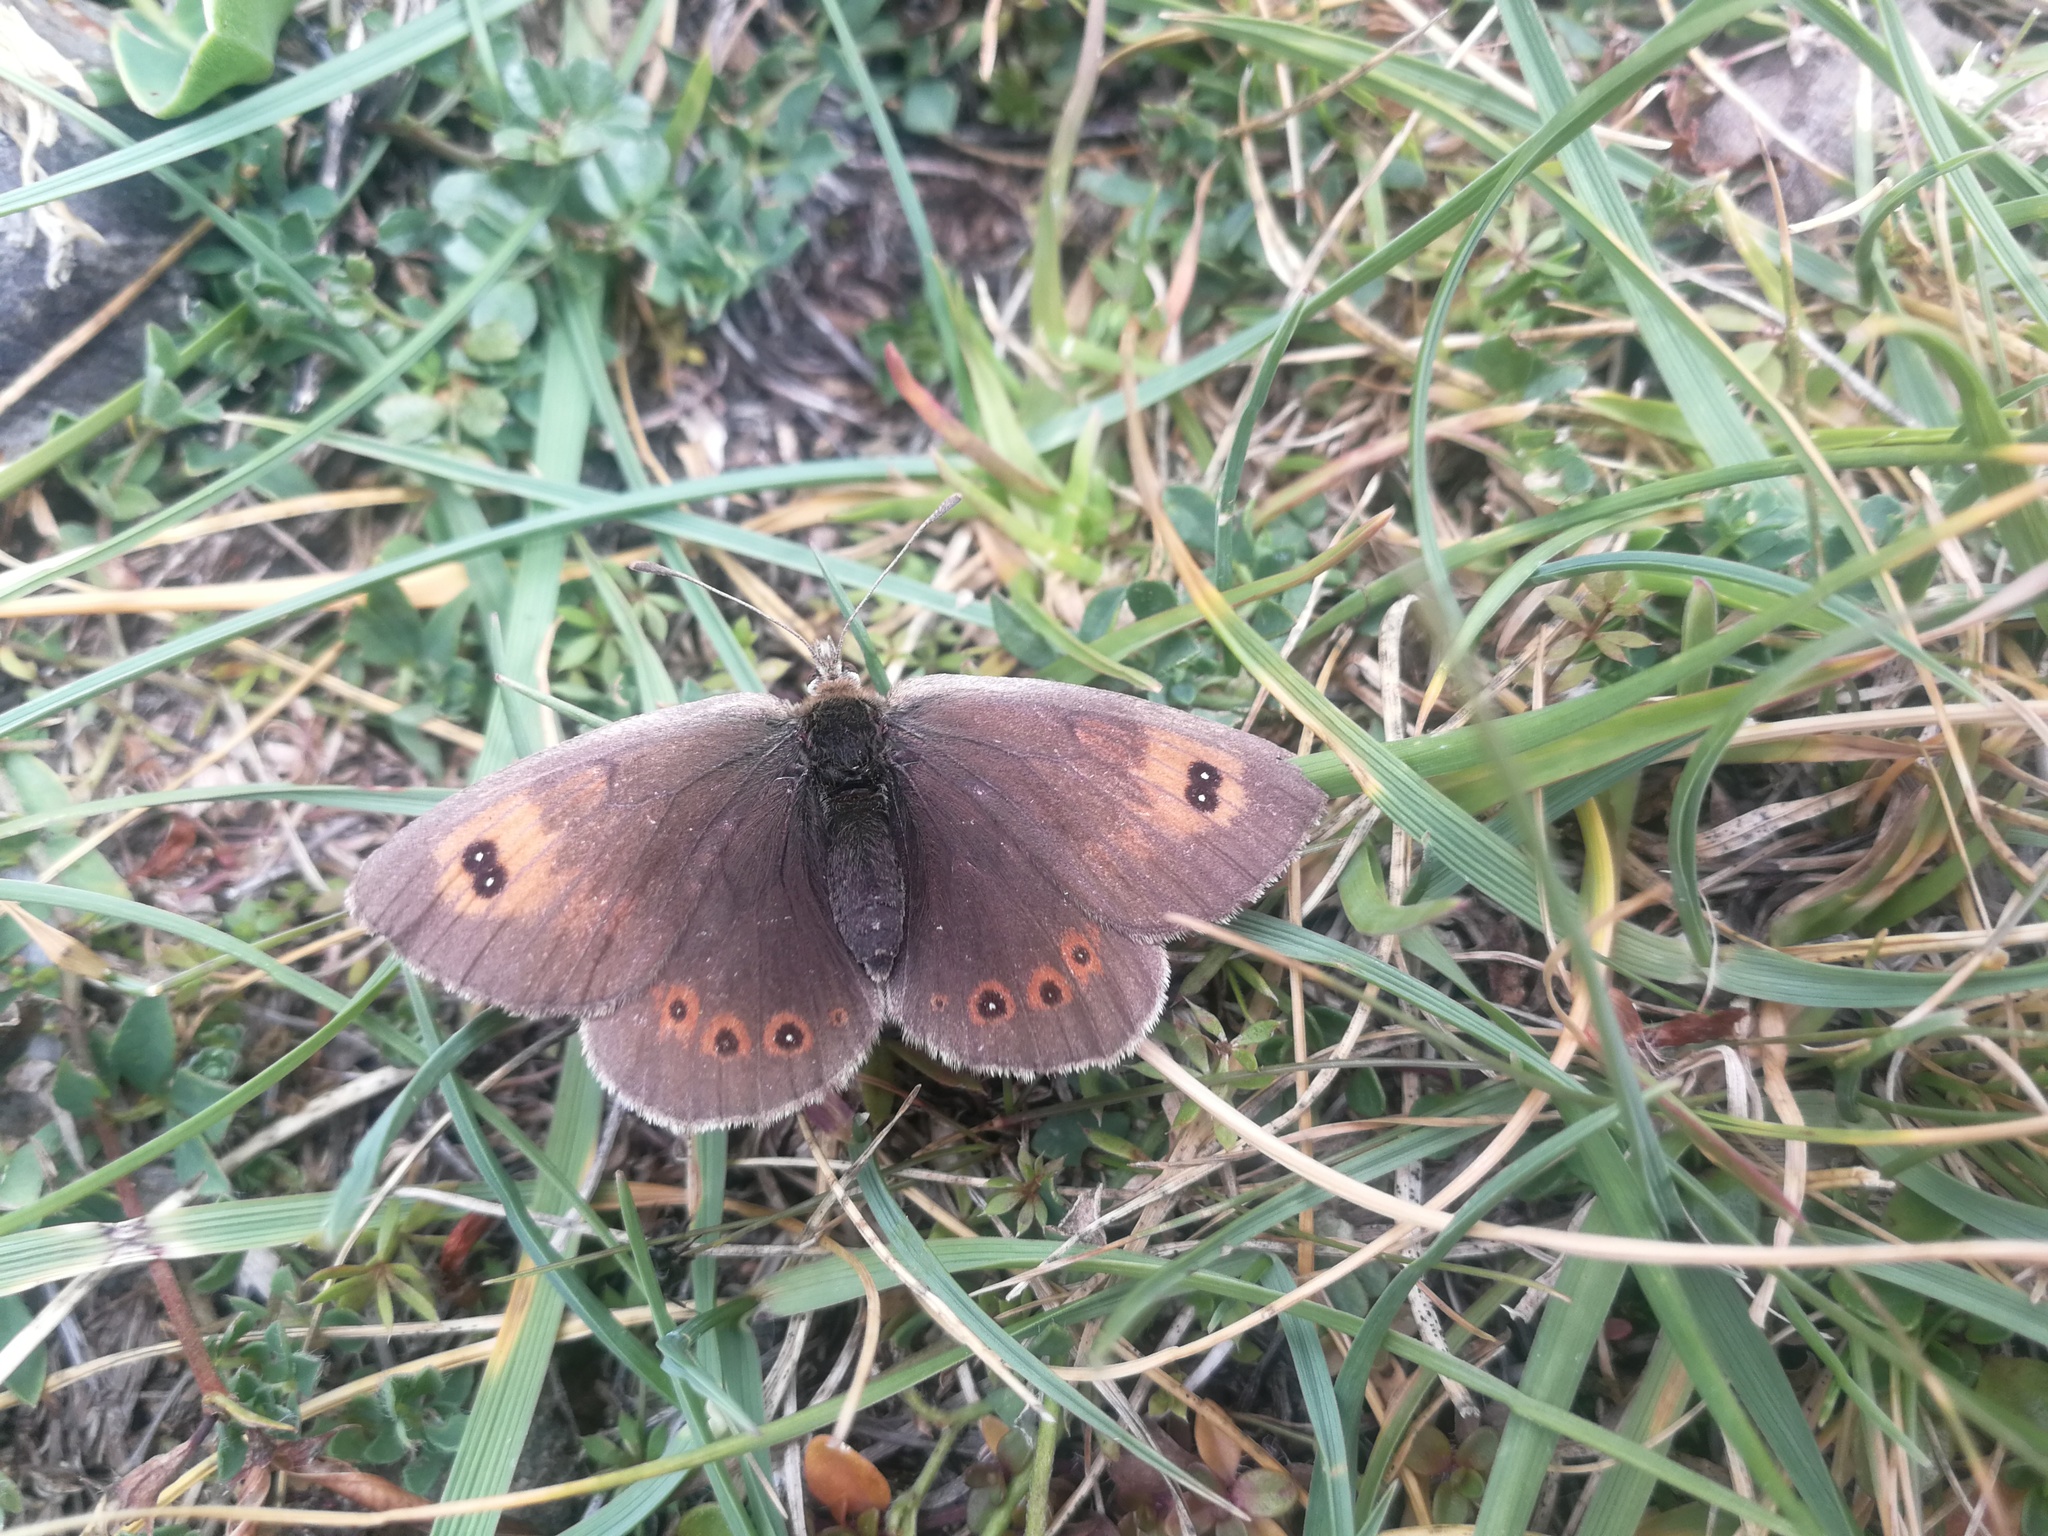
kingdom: Animalia
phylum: Arthropoda
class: Insecta
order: Lepidoptera
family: Nymphalidae
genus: Erebia
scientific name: Erebia cassioides
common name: Common brassy ringlet
